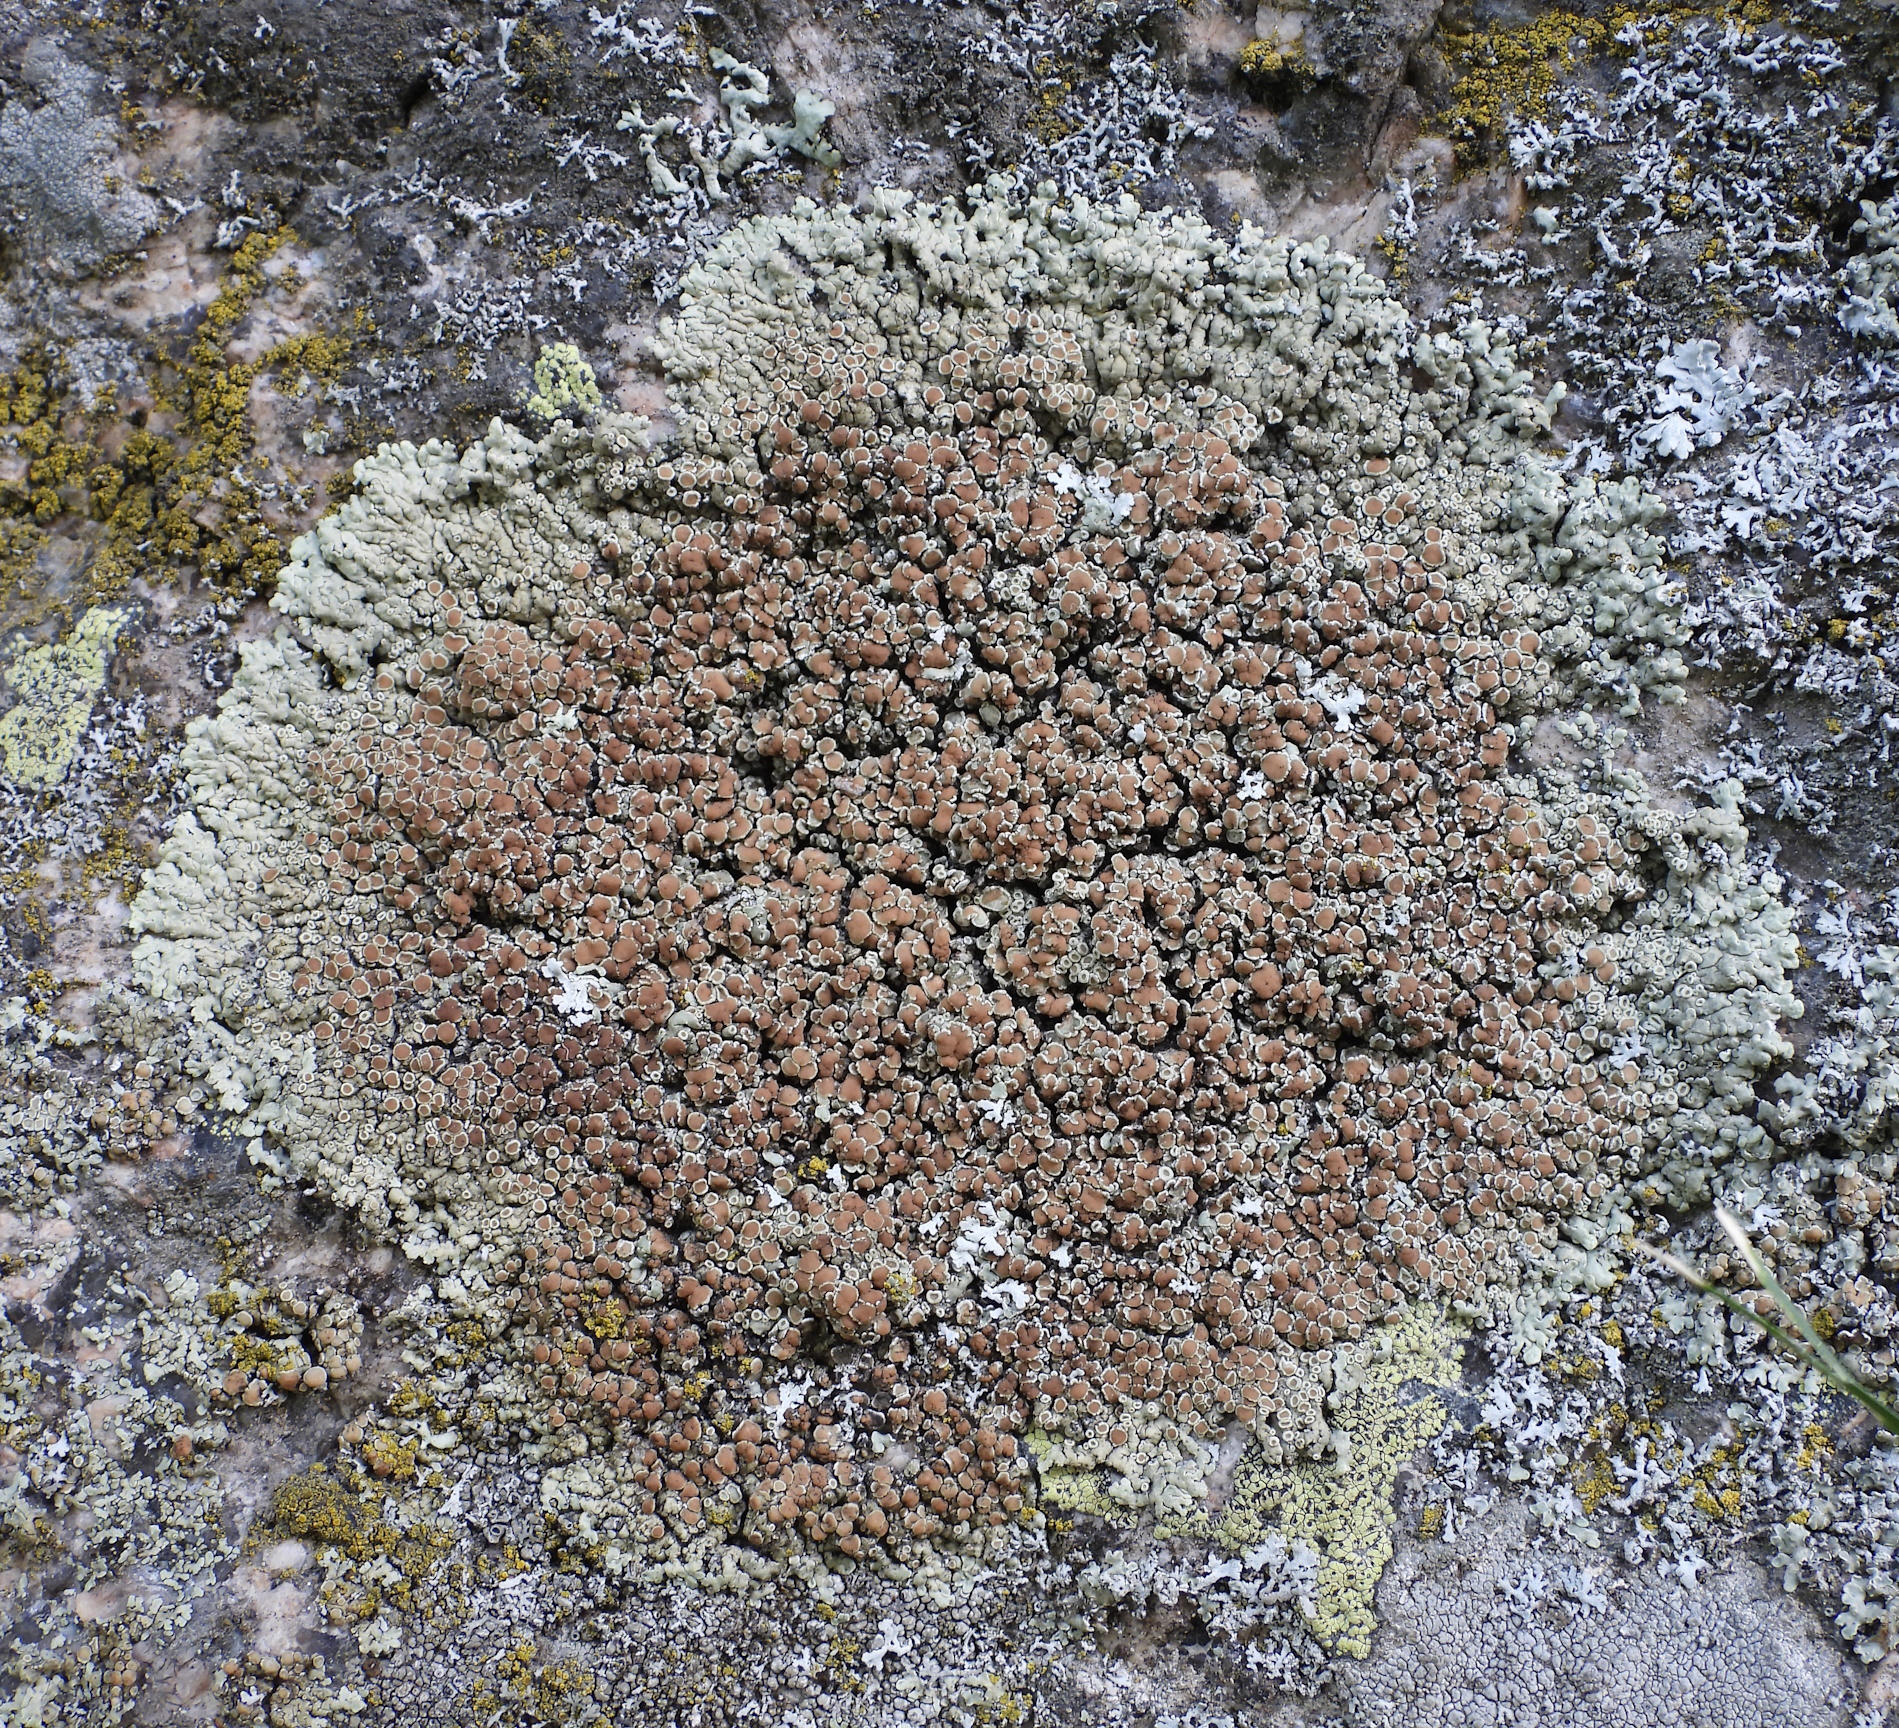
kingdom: Fungi
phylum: Ascomycota
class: Lecanoromycetes
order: Lecanorales
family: Lecanoraceae
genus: Protoparmeliopsis
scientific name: Protoparmeliopsis muralis
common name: Stonewall rim lichen
